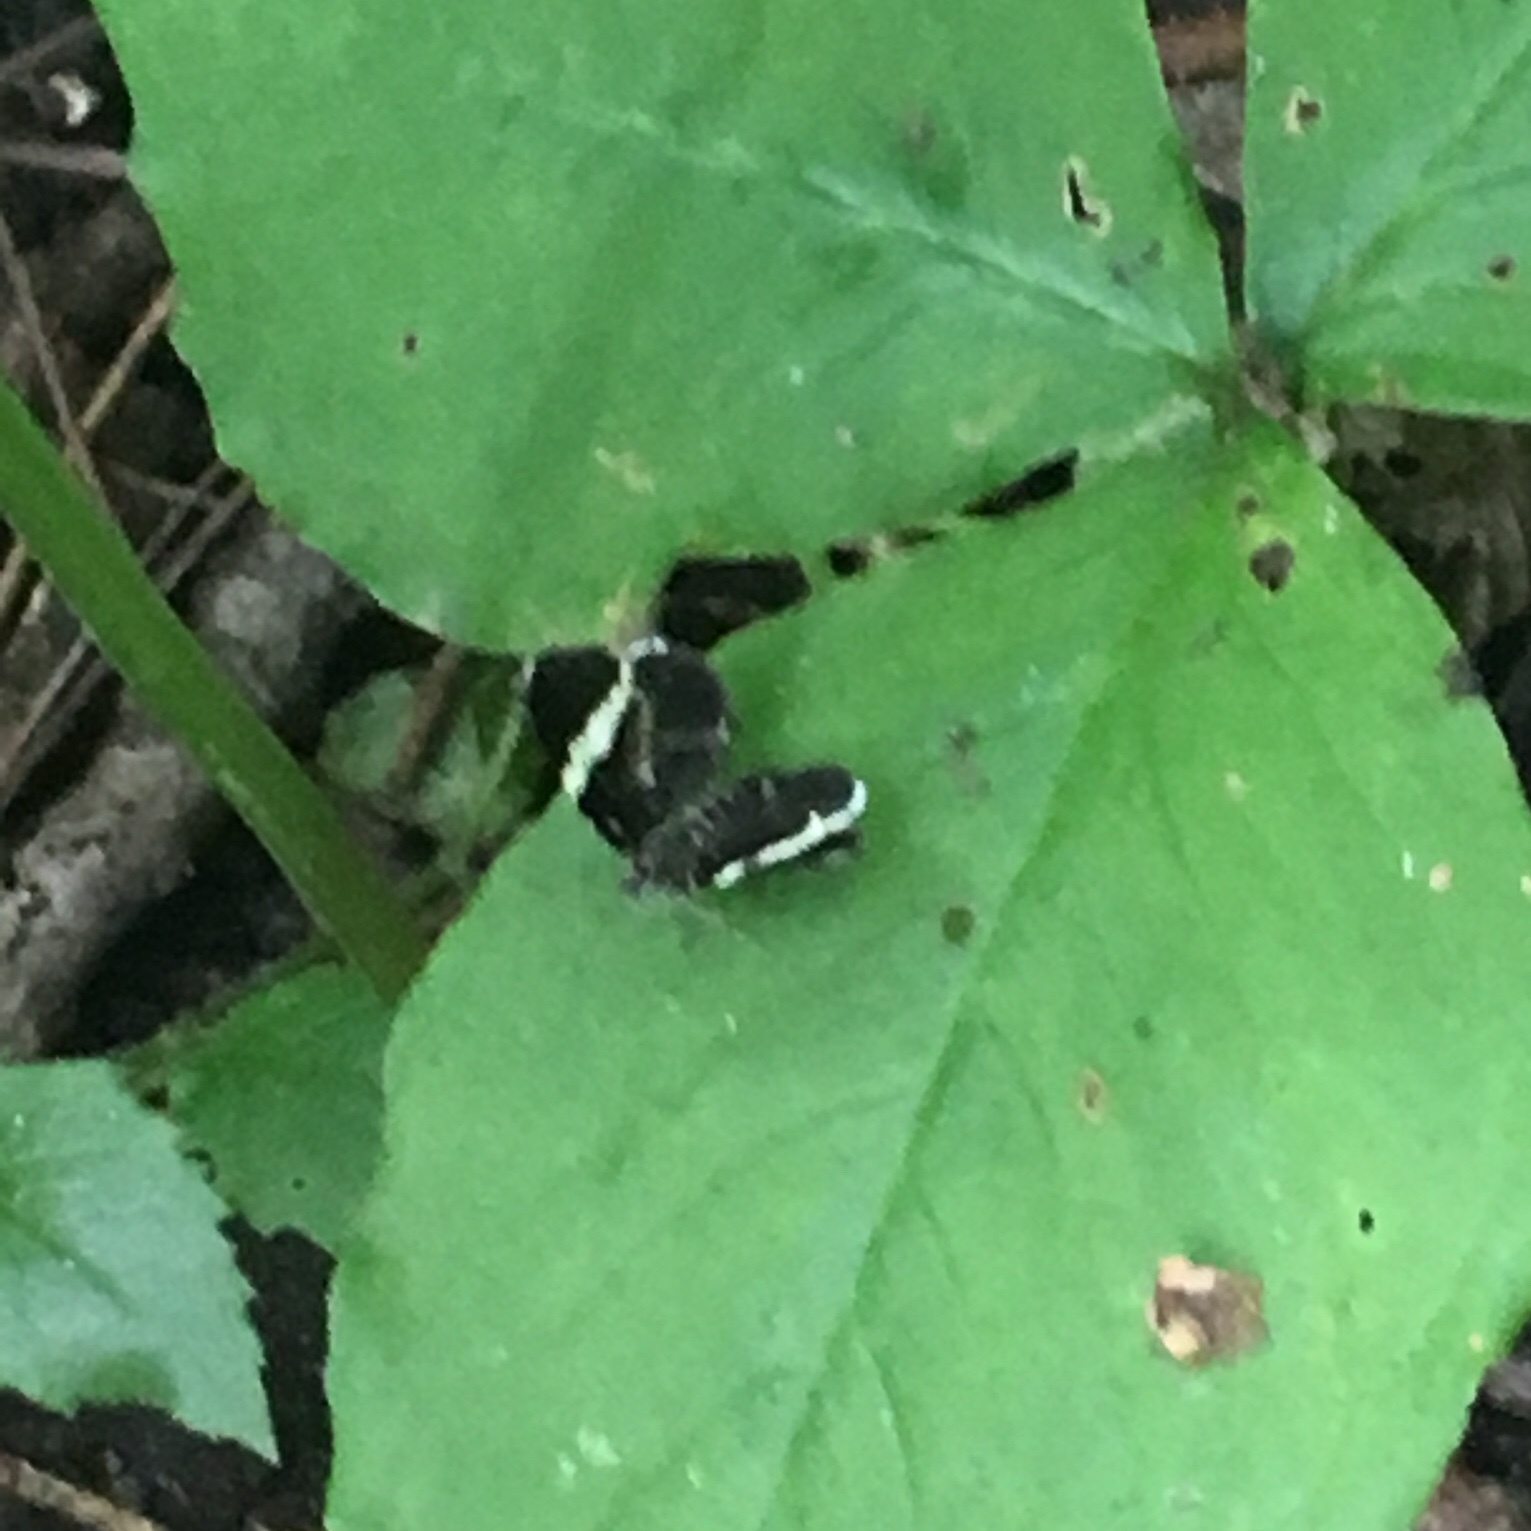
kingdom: Animalia
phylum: Arthropoda
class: Insecta
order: Lepidoptera
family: Geometridae
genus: Trichodezia
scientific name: Trichodezia albovittata
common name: White striped black
